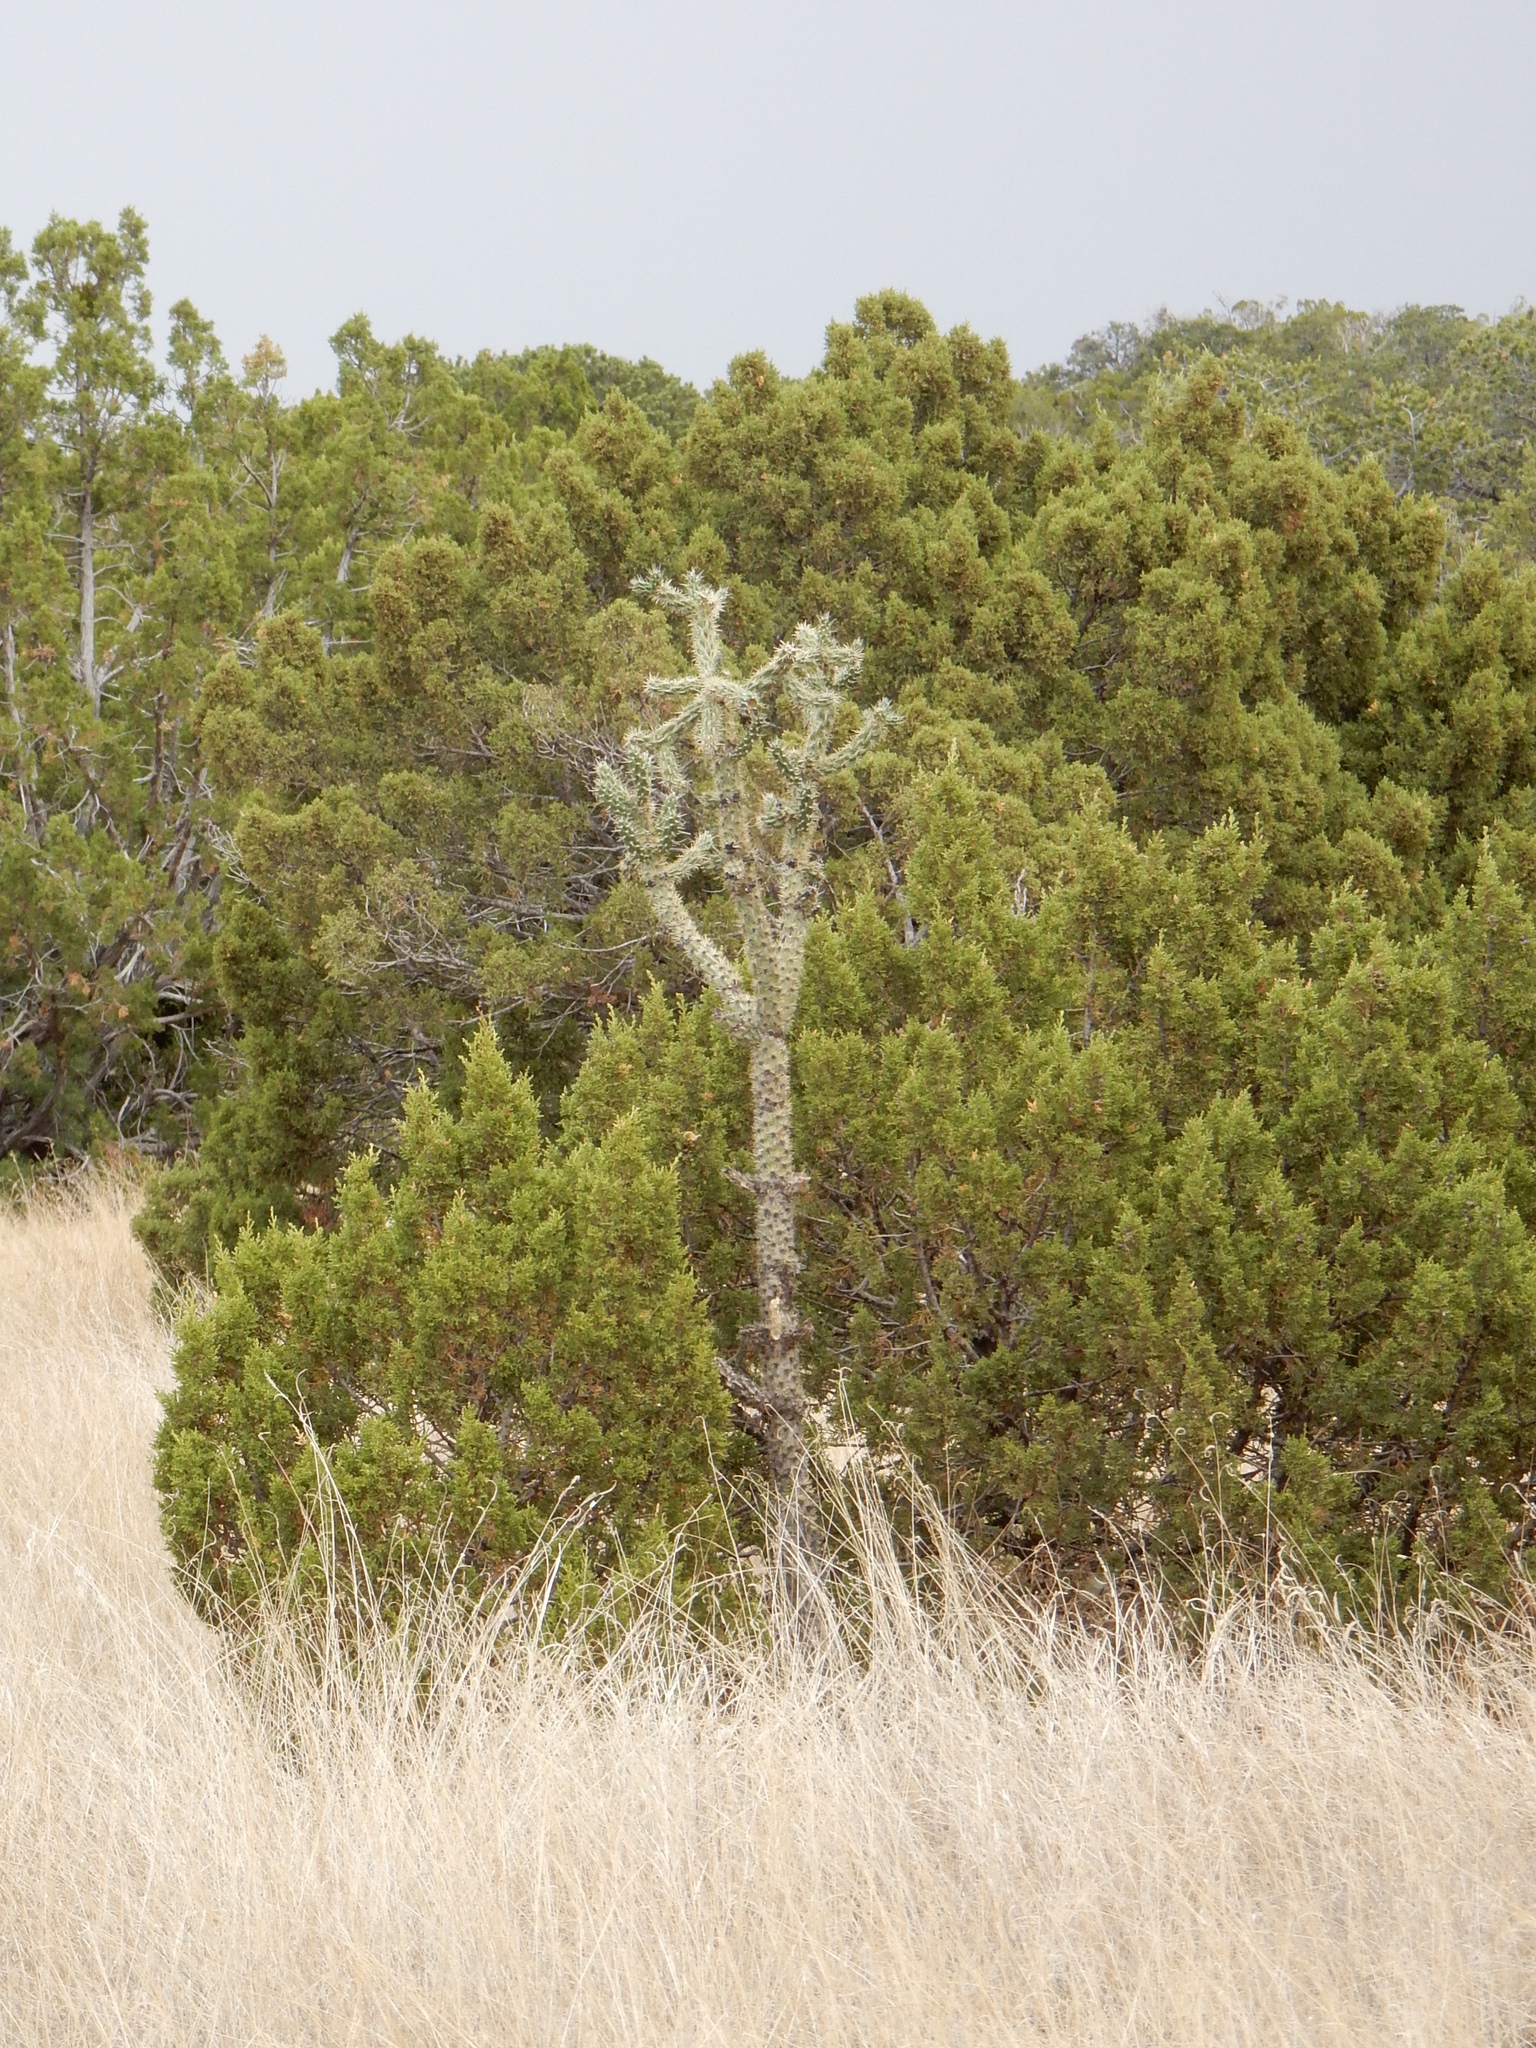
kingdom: Plantae
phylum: Tracheophyta
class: Magnoliopsida
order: Caryophyllales
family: Cactaceae
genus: Cylindropuntia
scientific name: Cylindropuntia imbricata
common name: Candelabrum cactus
